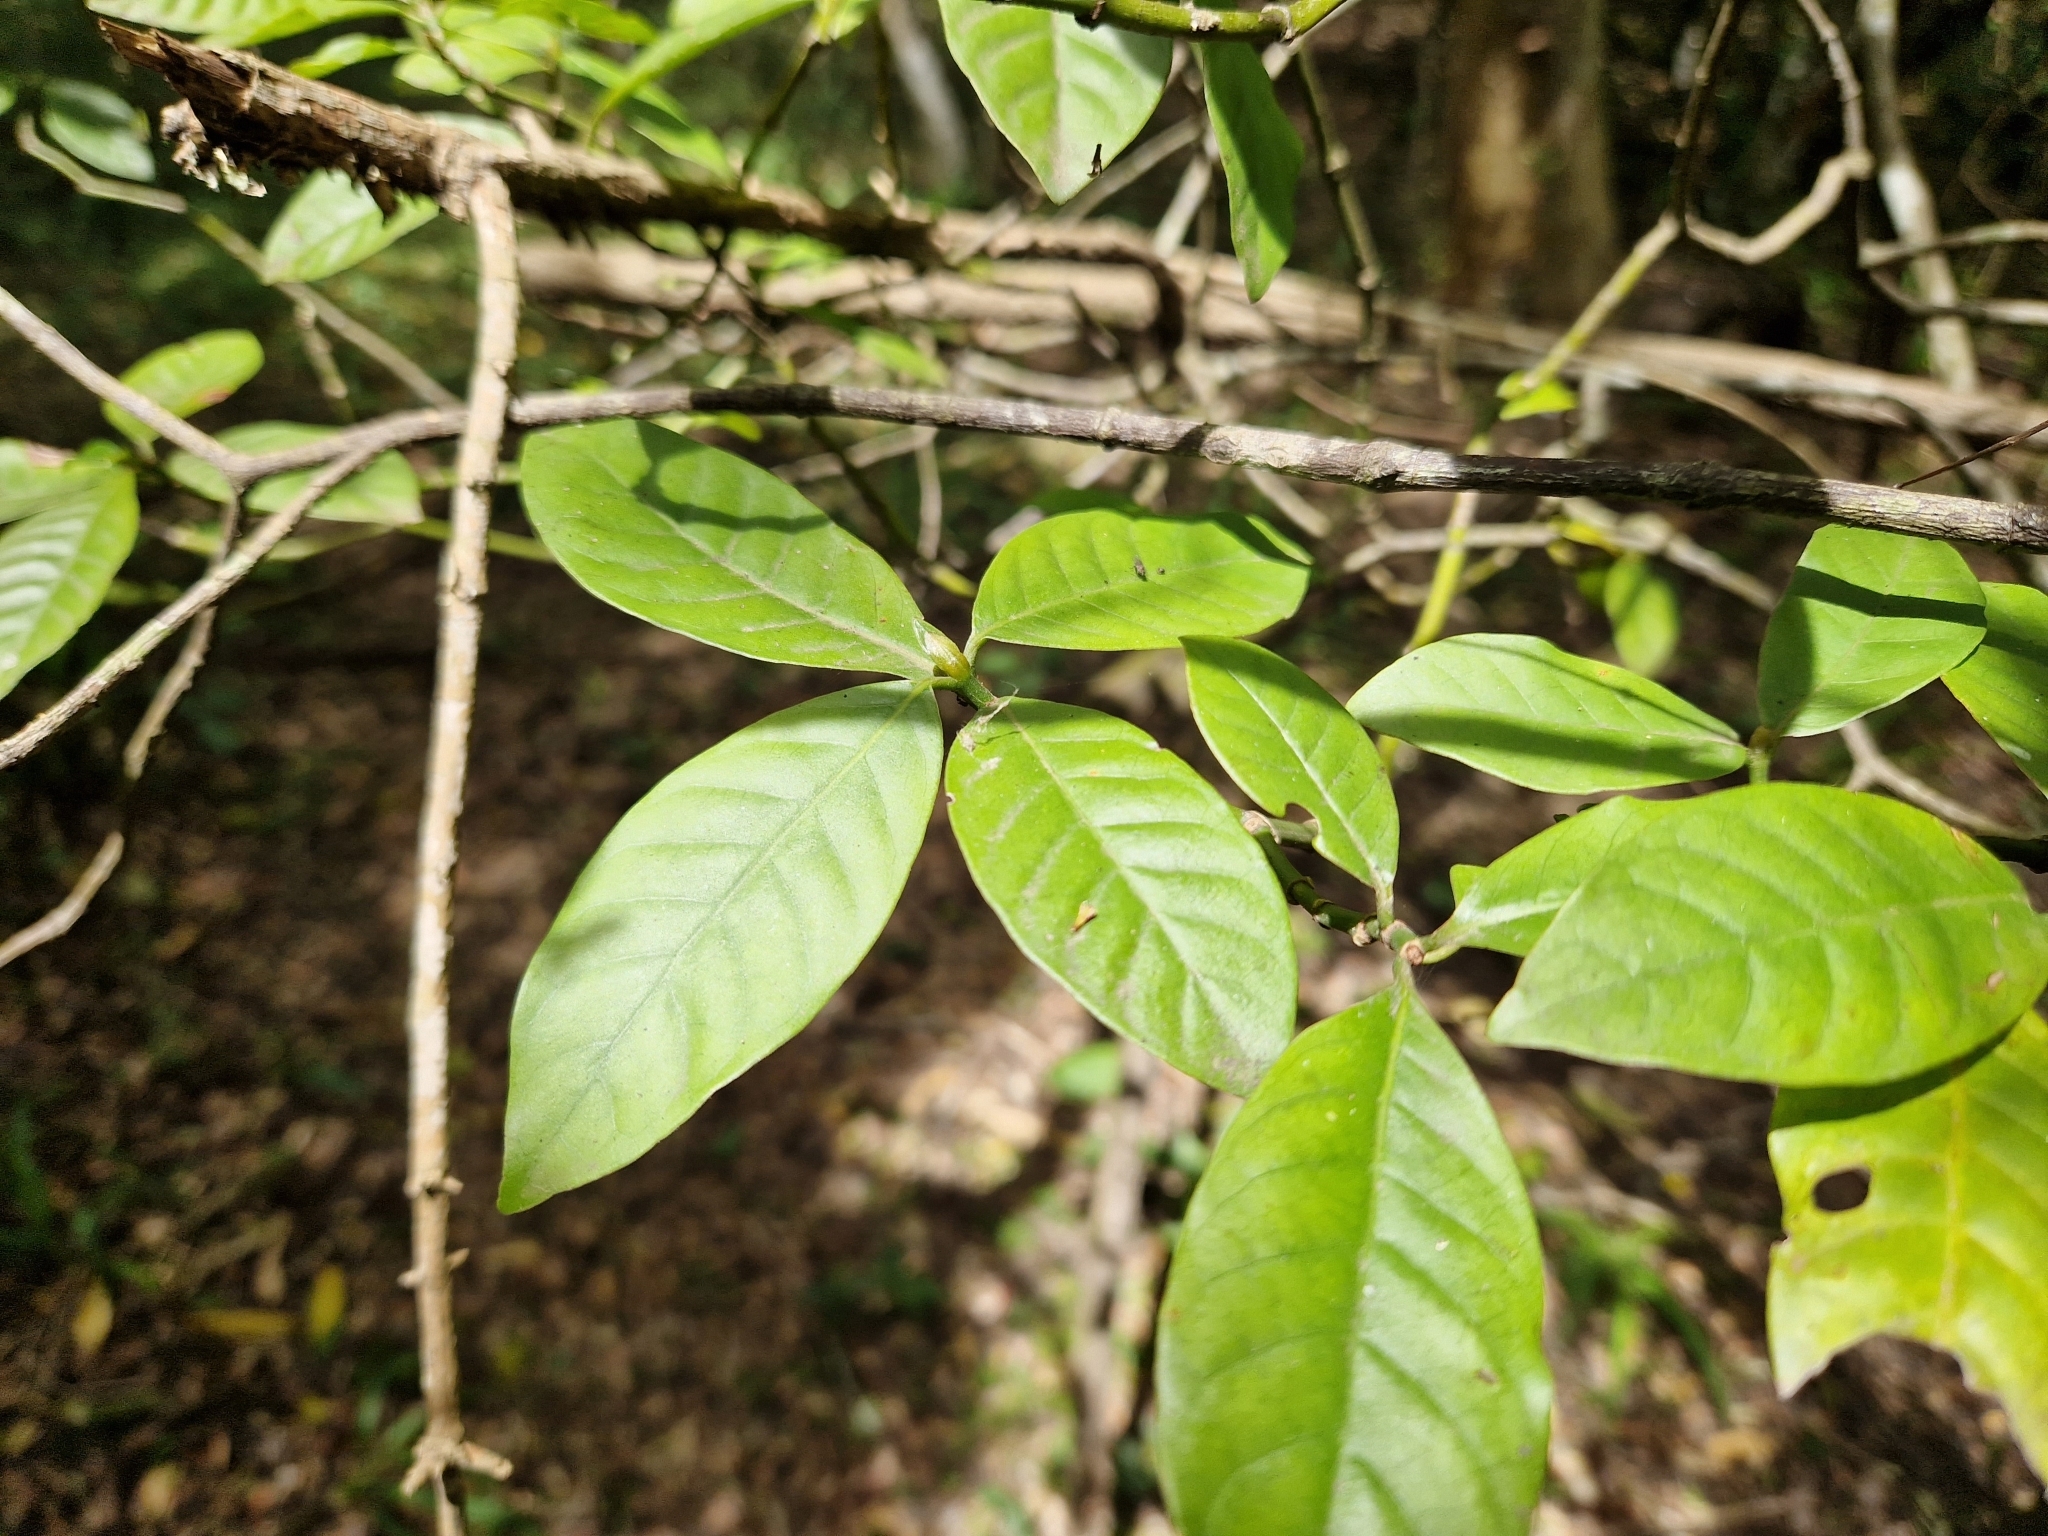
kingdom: Plantae
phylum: Tracheophyta
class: Magnoliopsida
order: Gentianales
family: Rubiaceae
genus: Psychotria
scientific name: Psychotria carthagenensis
